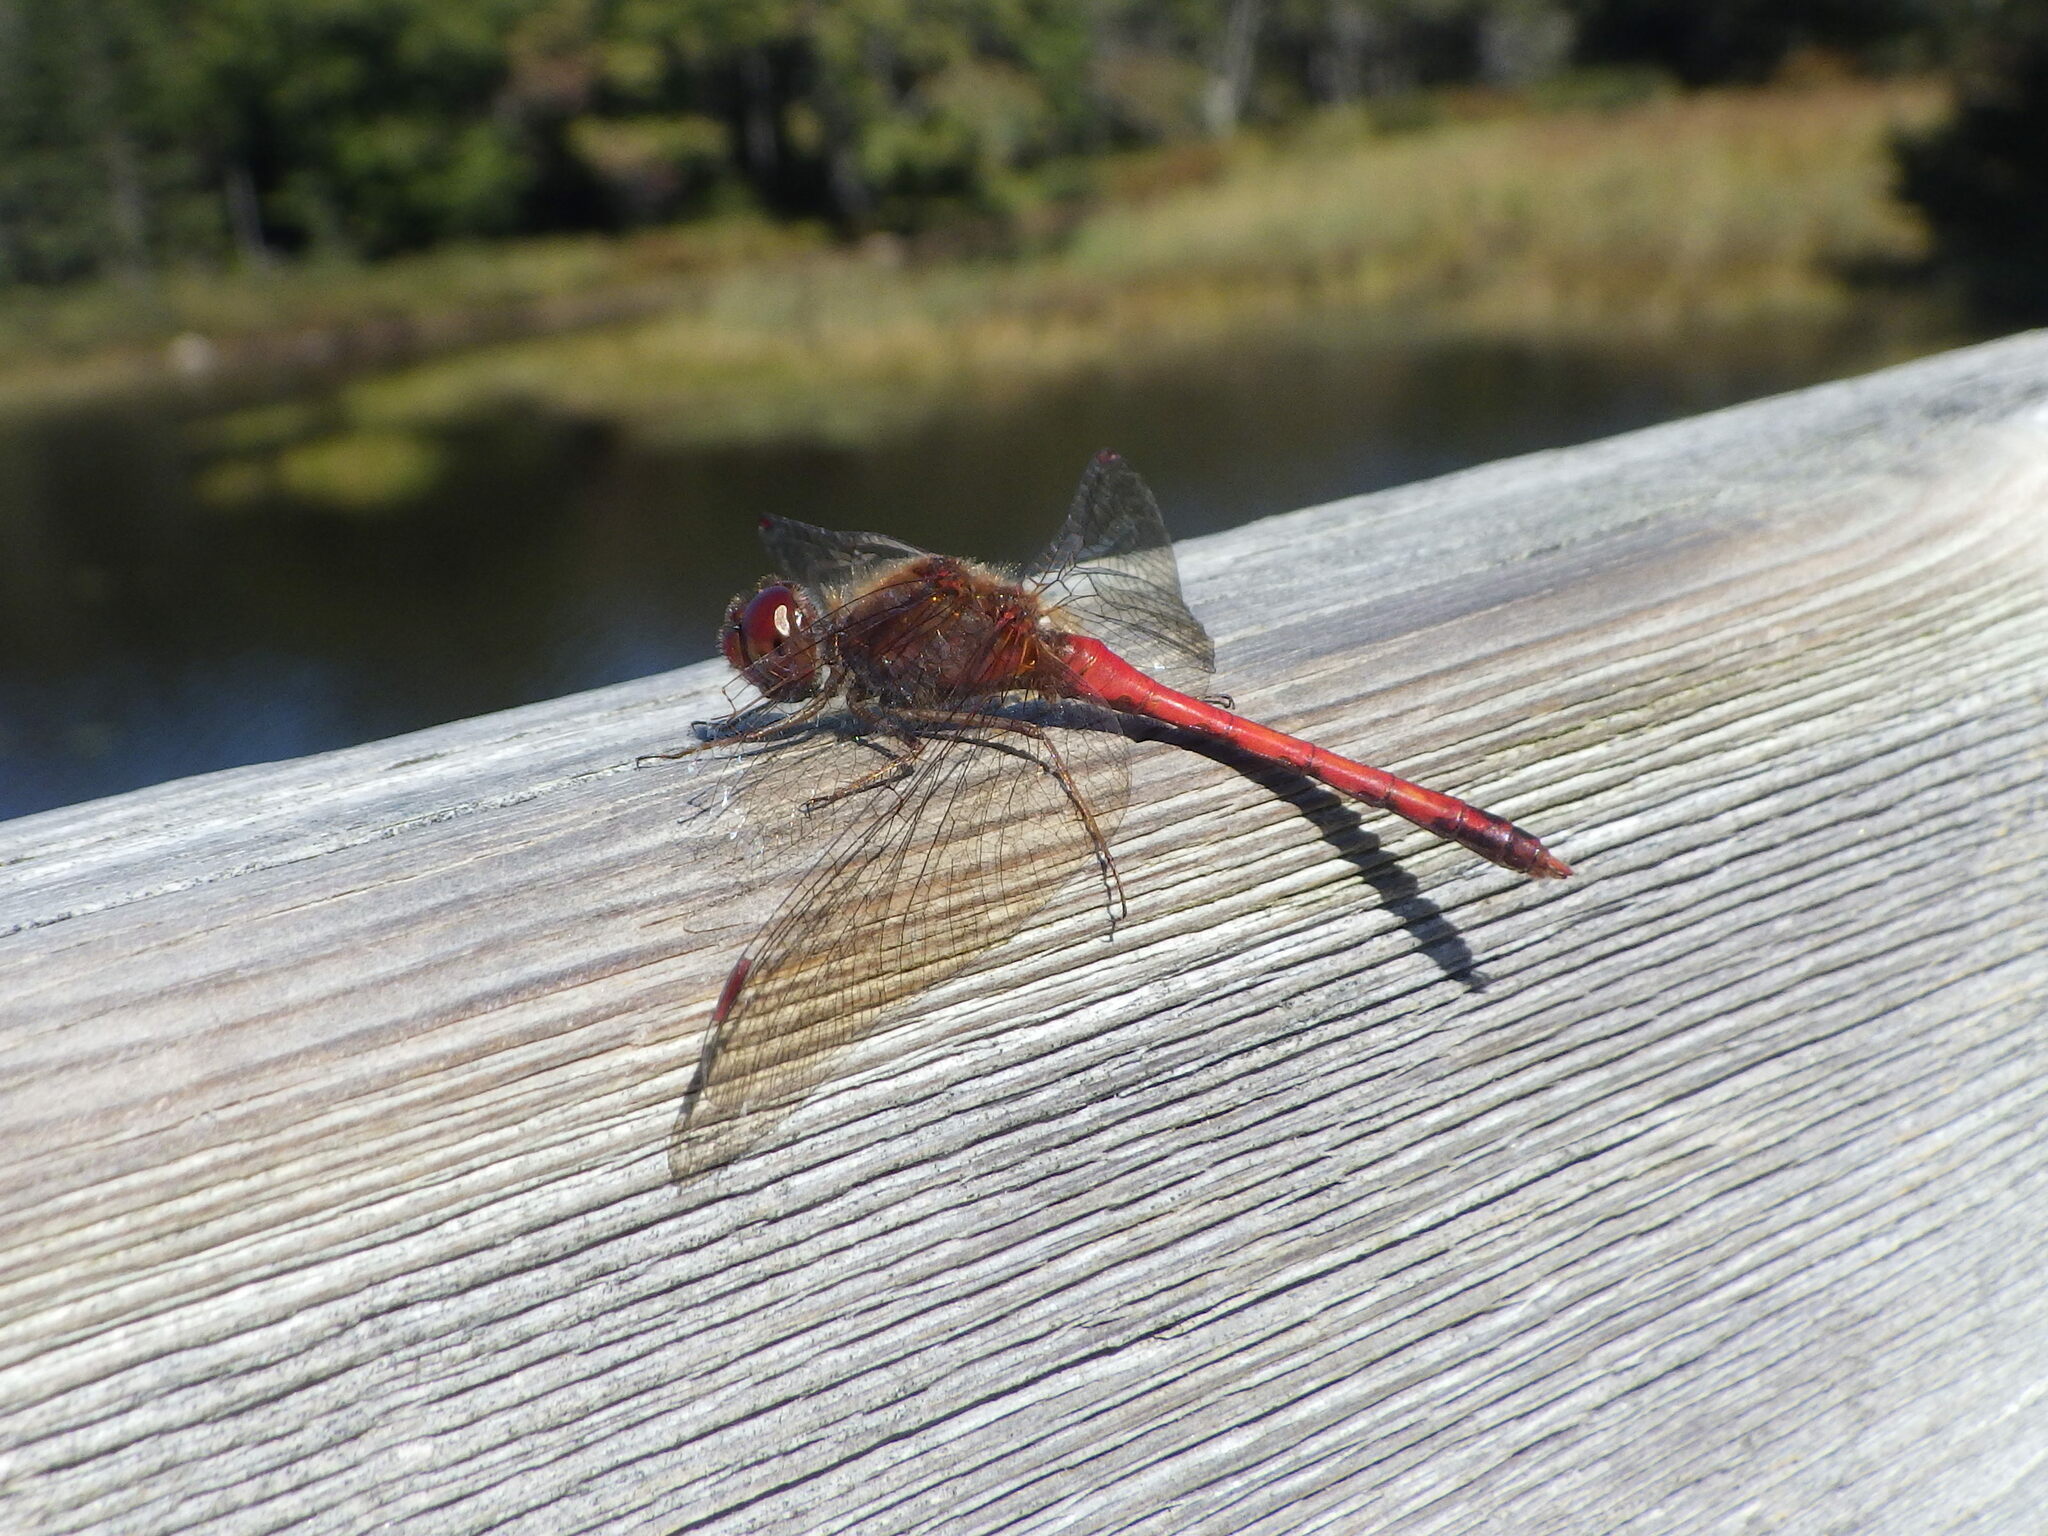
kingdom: Animalia
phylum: Arthropoda
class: Insecta
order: Odonata
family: Libellulidae
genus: Sympetrum
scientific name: Sympetrum vicinum
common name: Autumn meadowhawk
